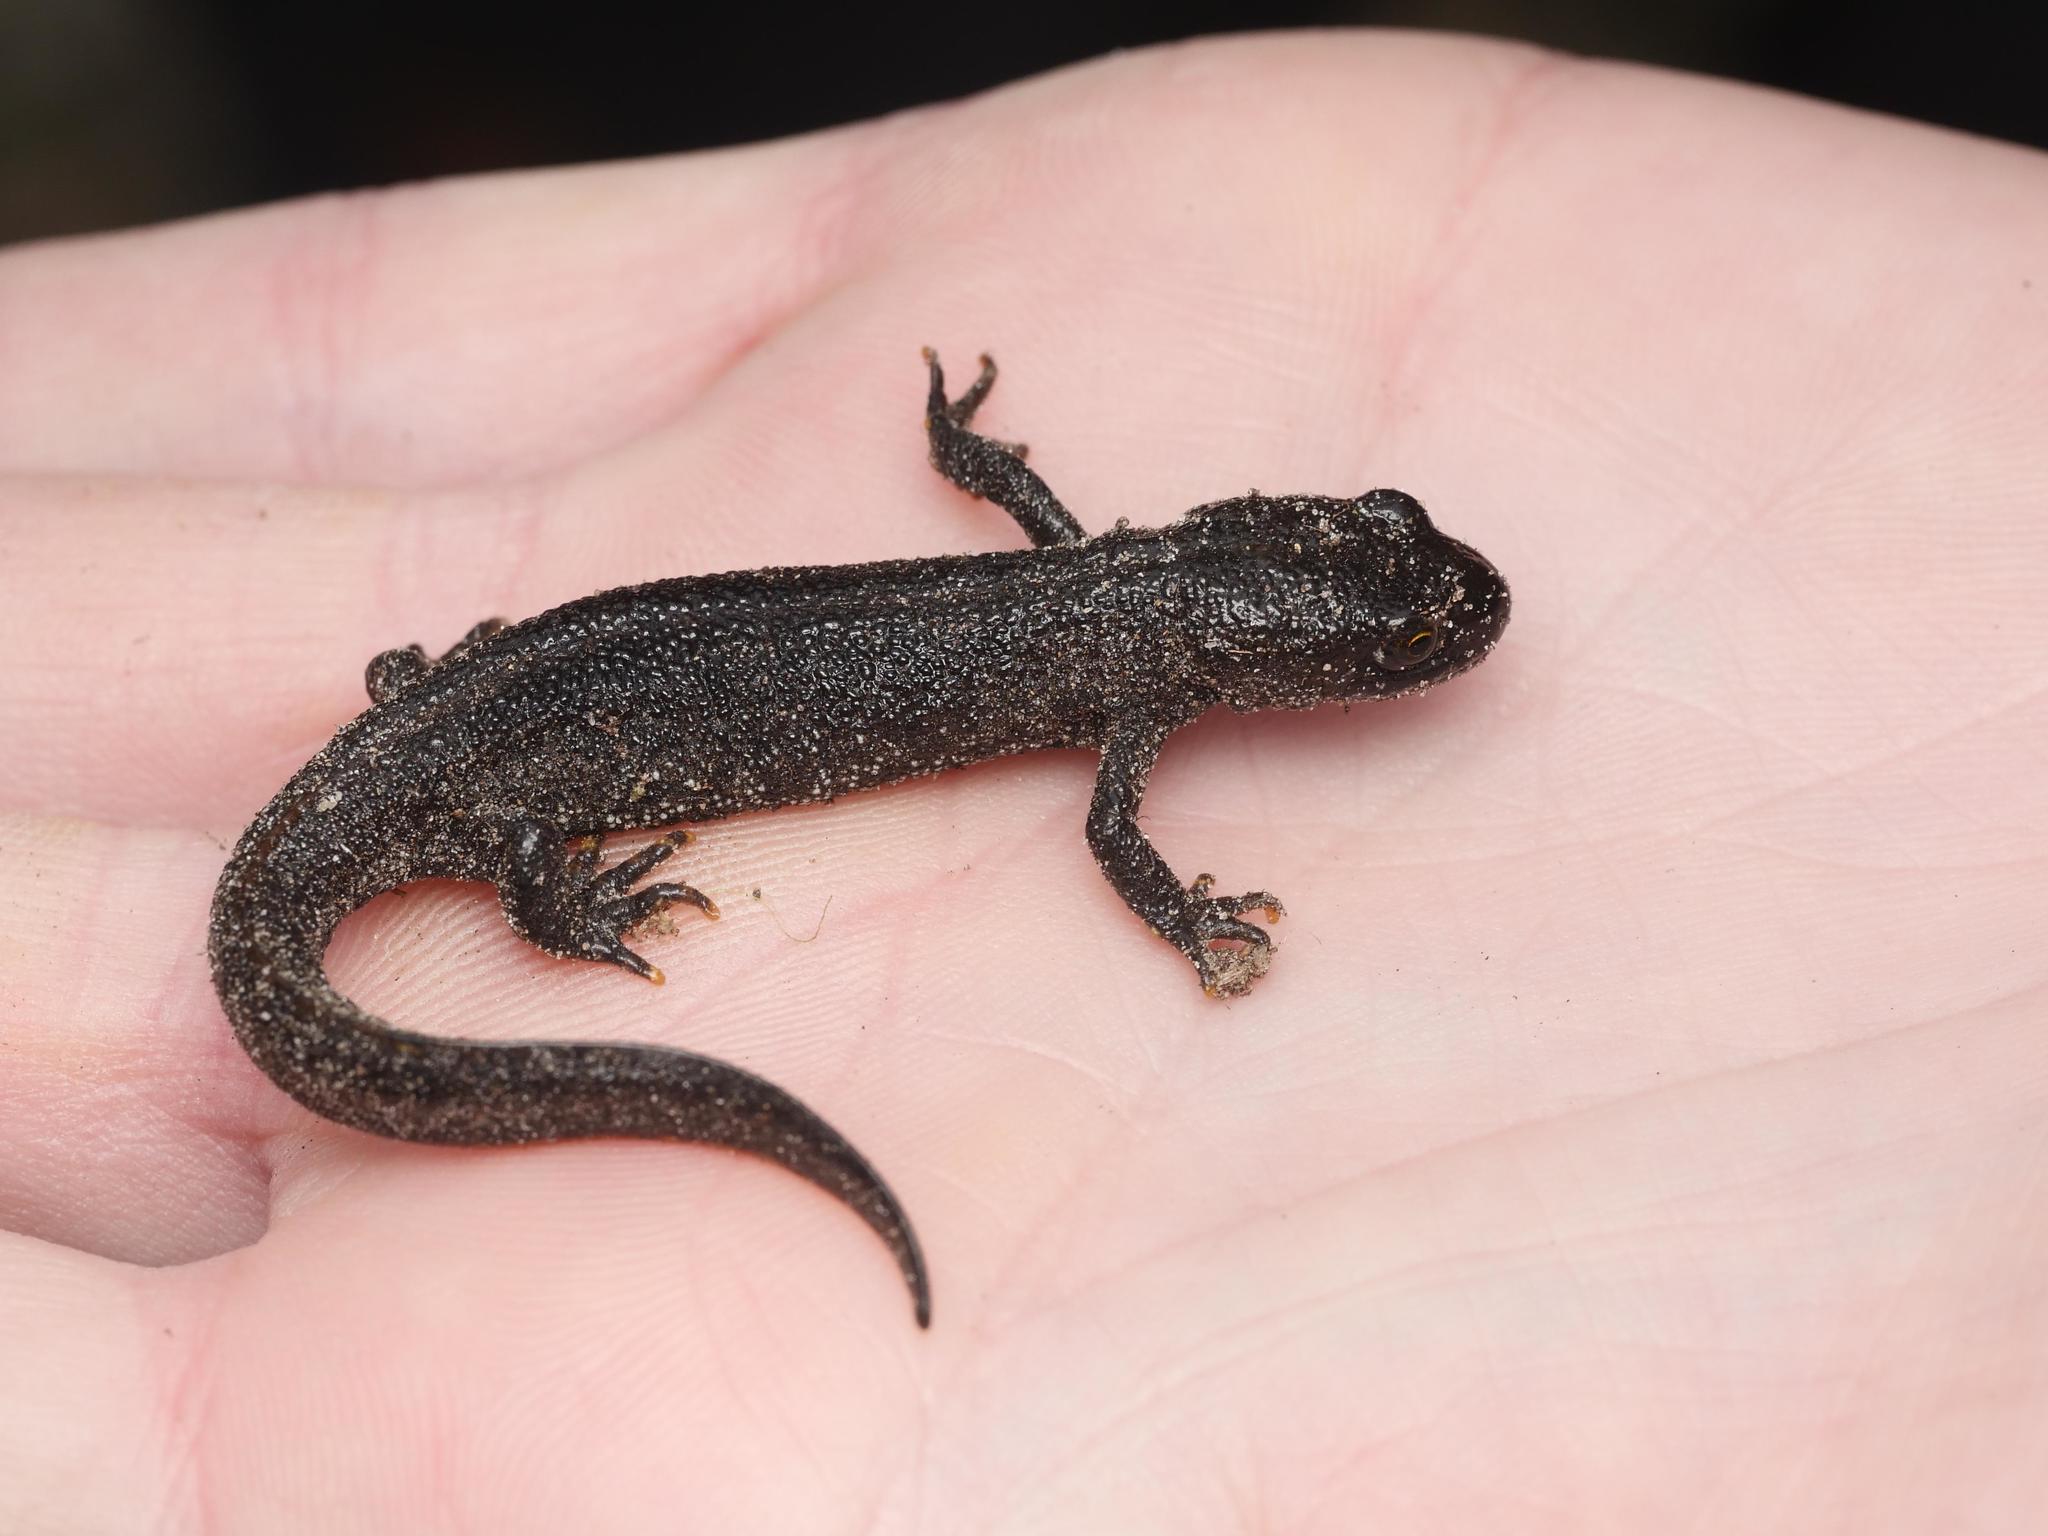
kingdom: Animalia
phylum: Chordata
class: Amphibia
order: Caudata
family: Salamandridae
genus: Triturus
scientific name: Triturus cristatus
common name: Crested newt
